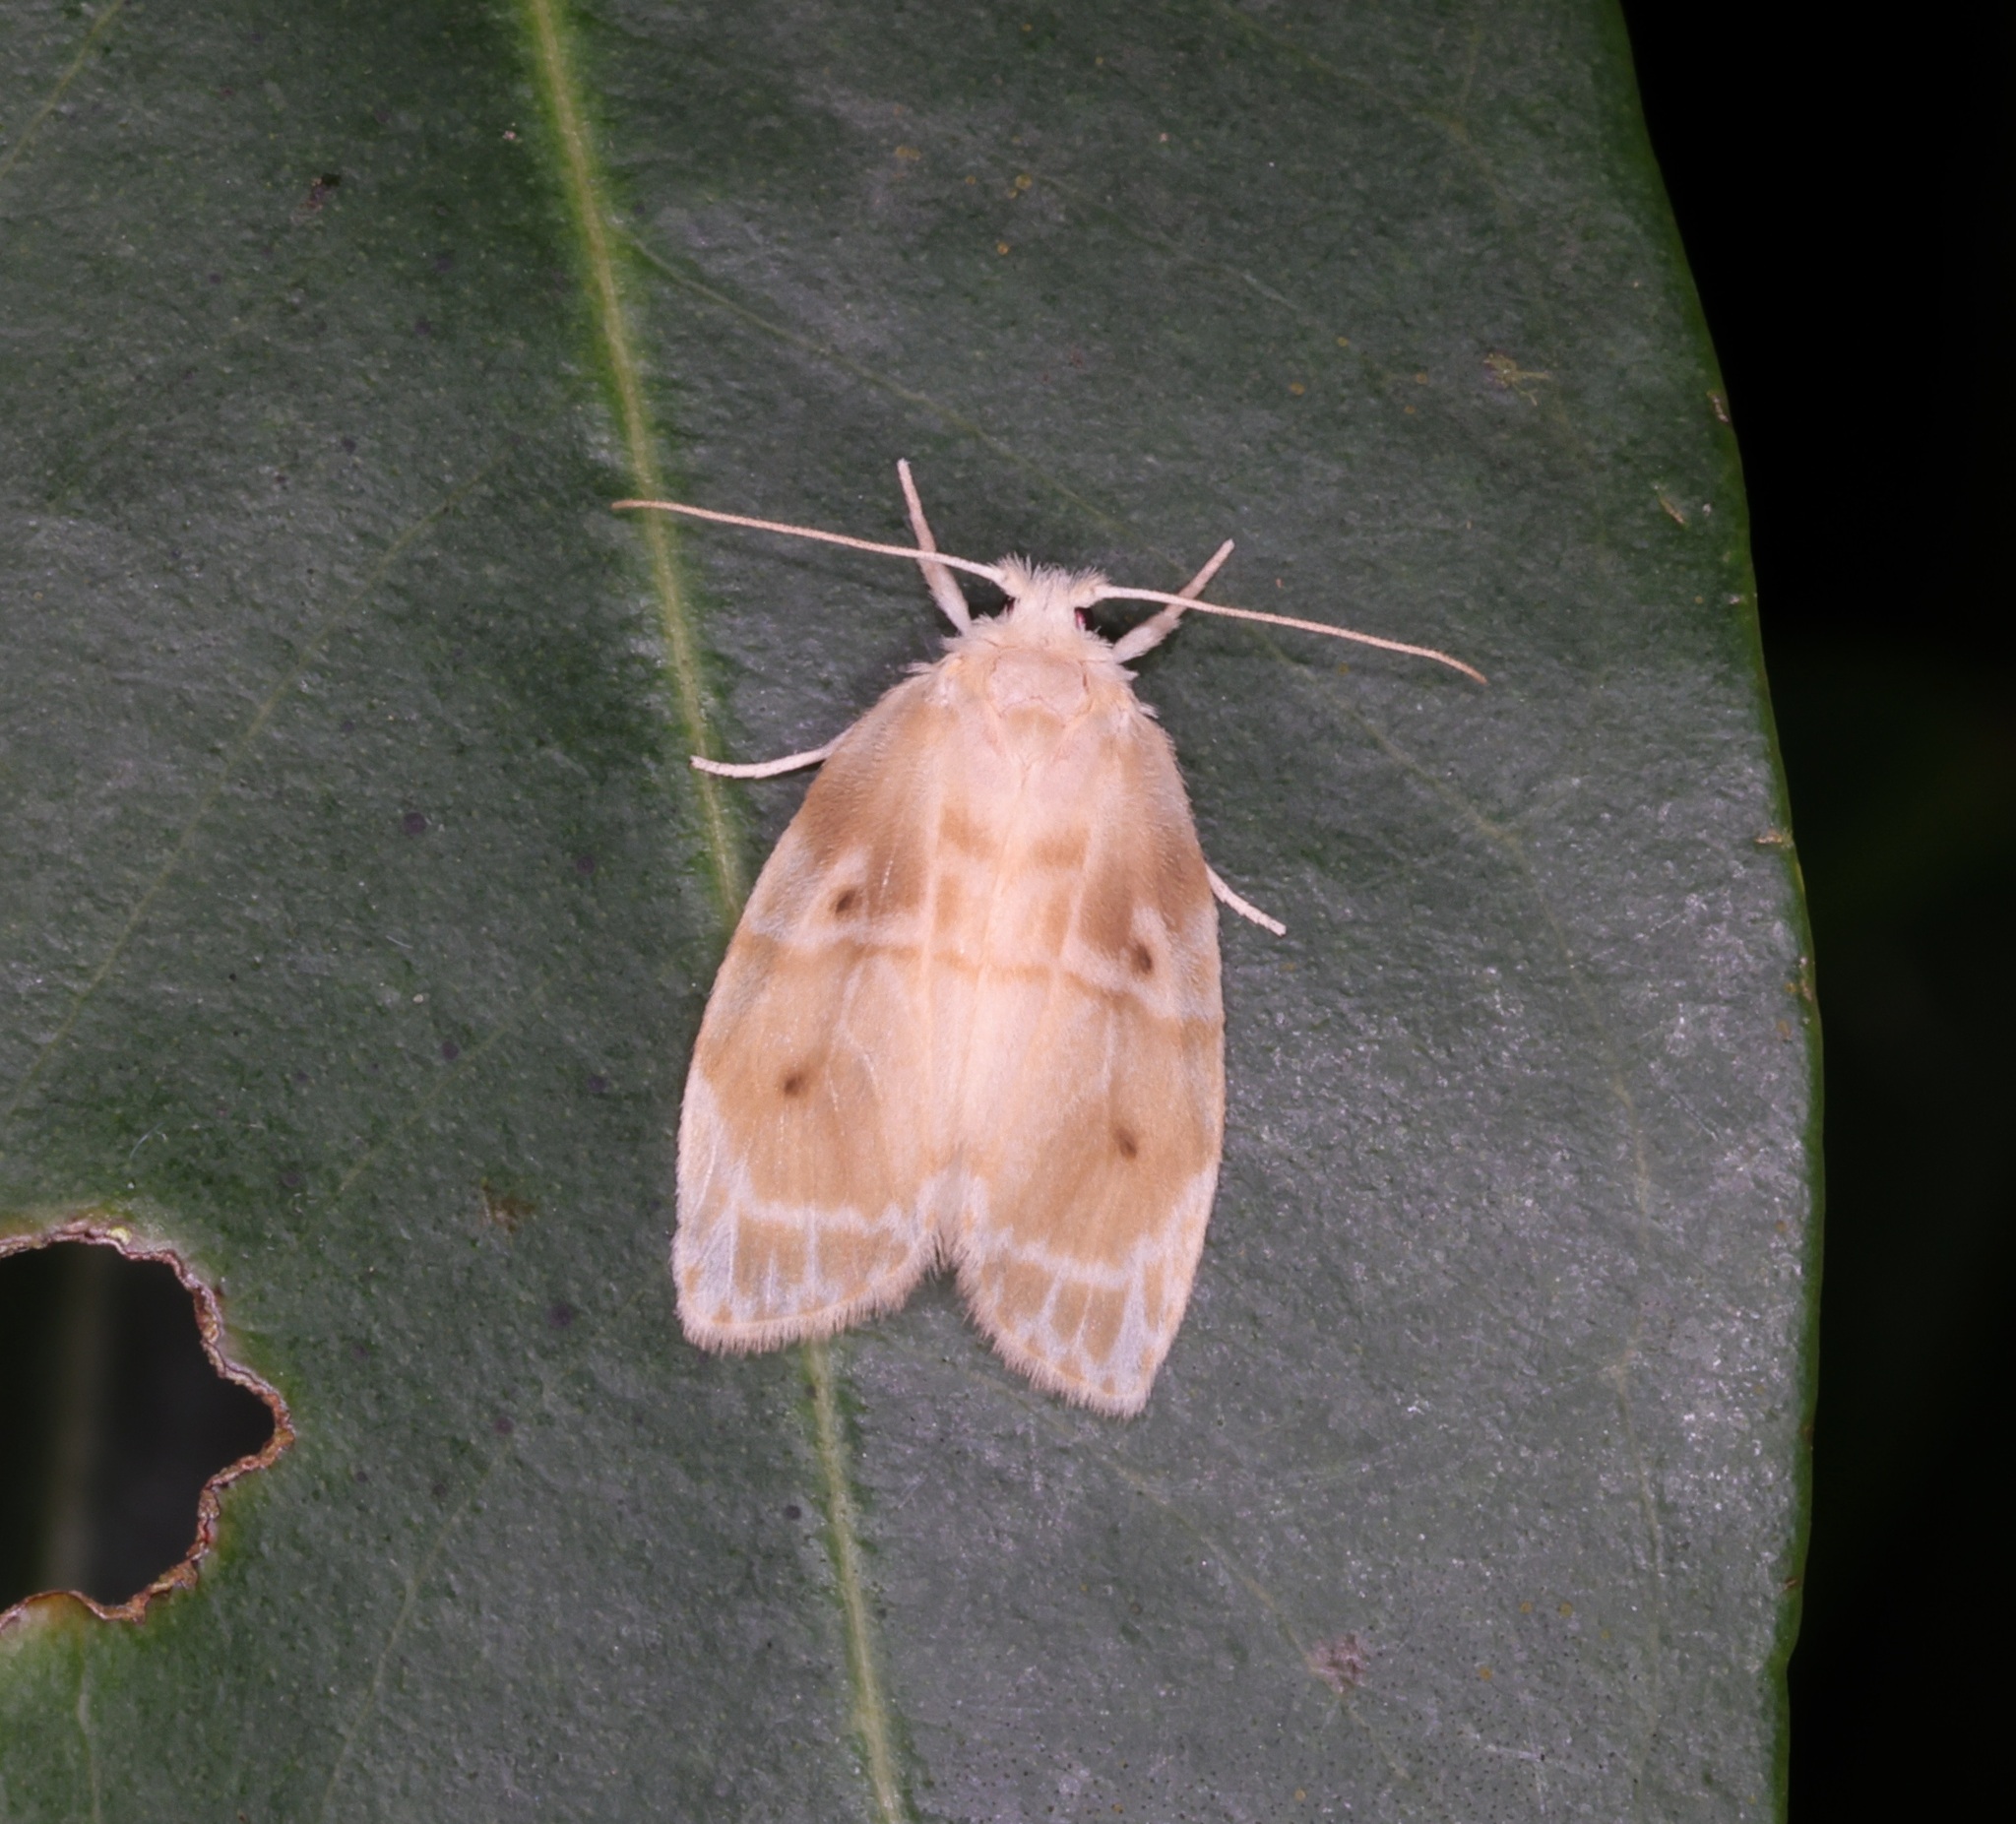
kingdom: Animalia
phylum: Arthropoda
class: Insecta
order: Lepidoptera
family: Erebidae
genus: Schistophleps
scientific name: Schistophleps bipuncta
